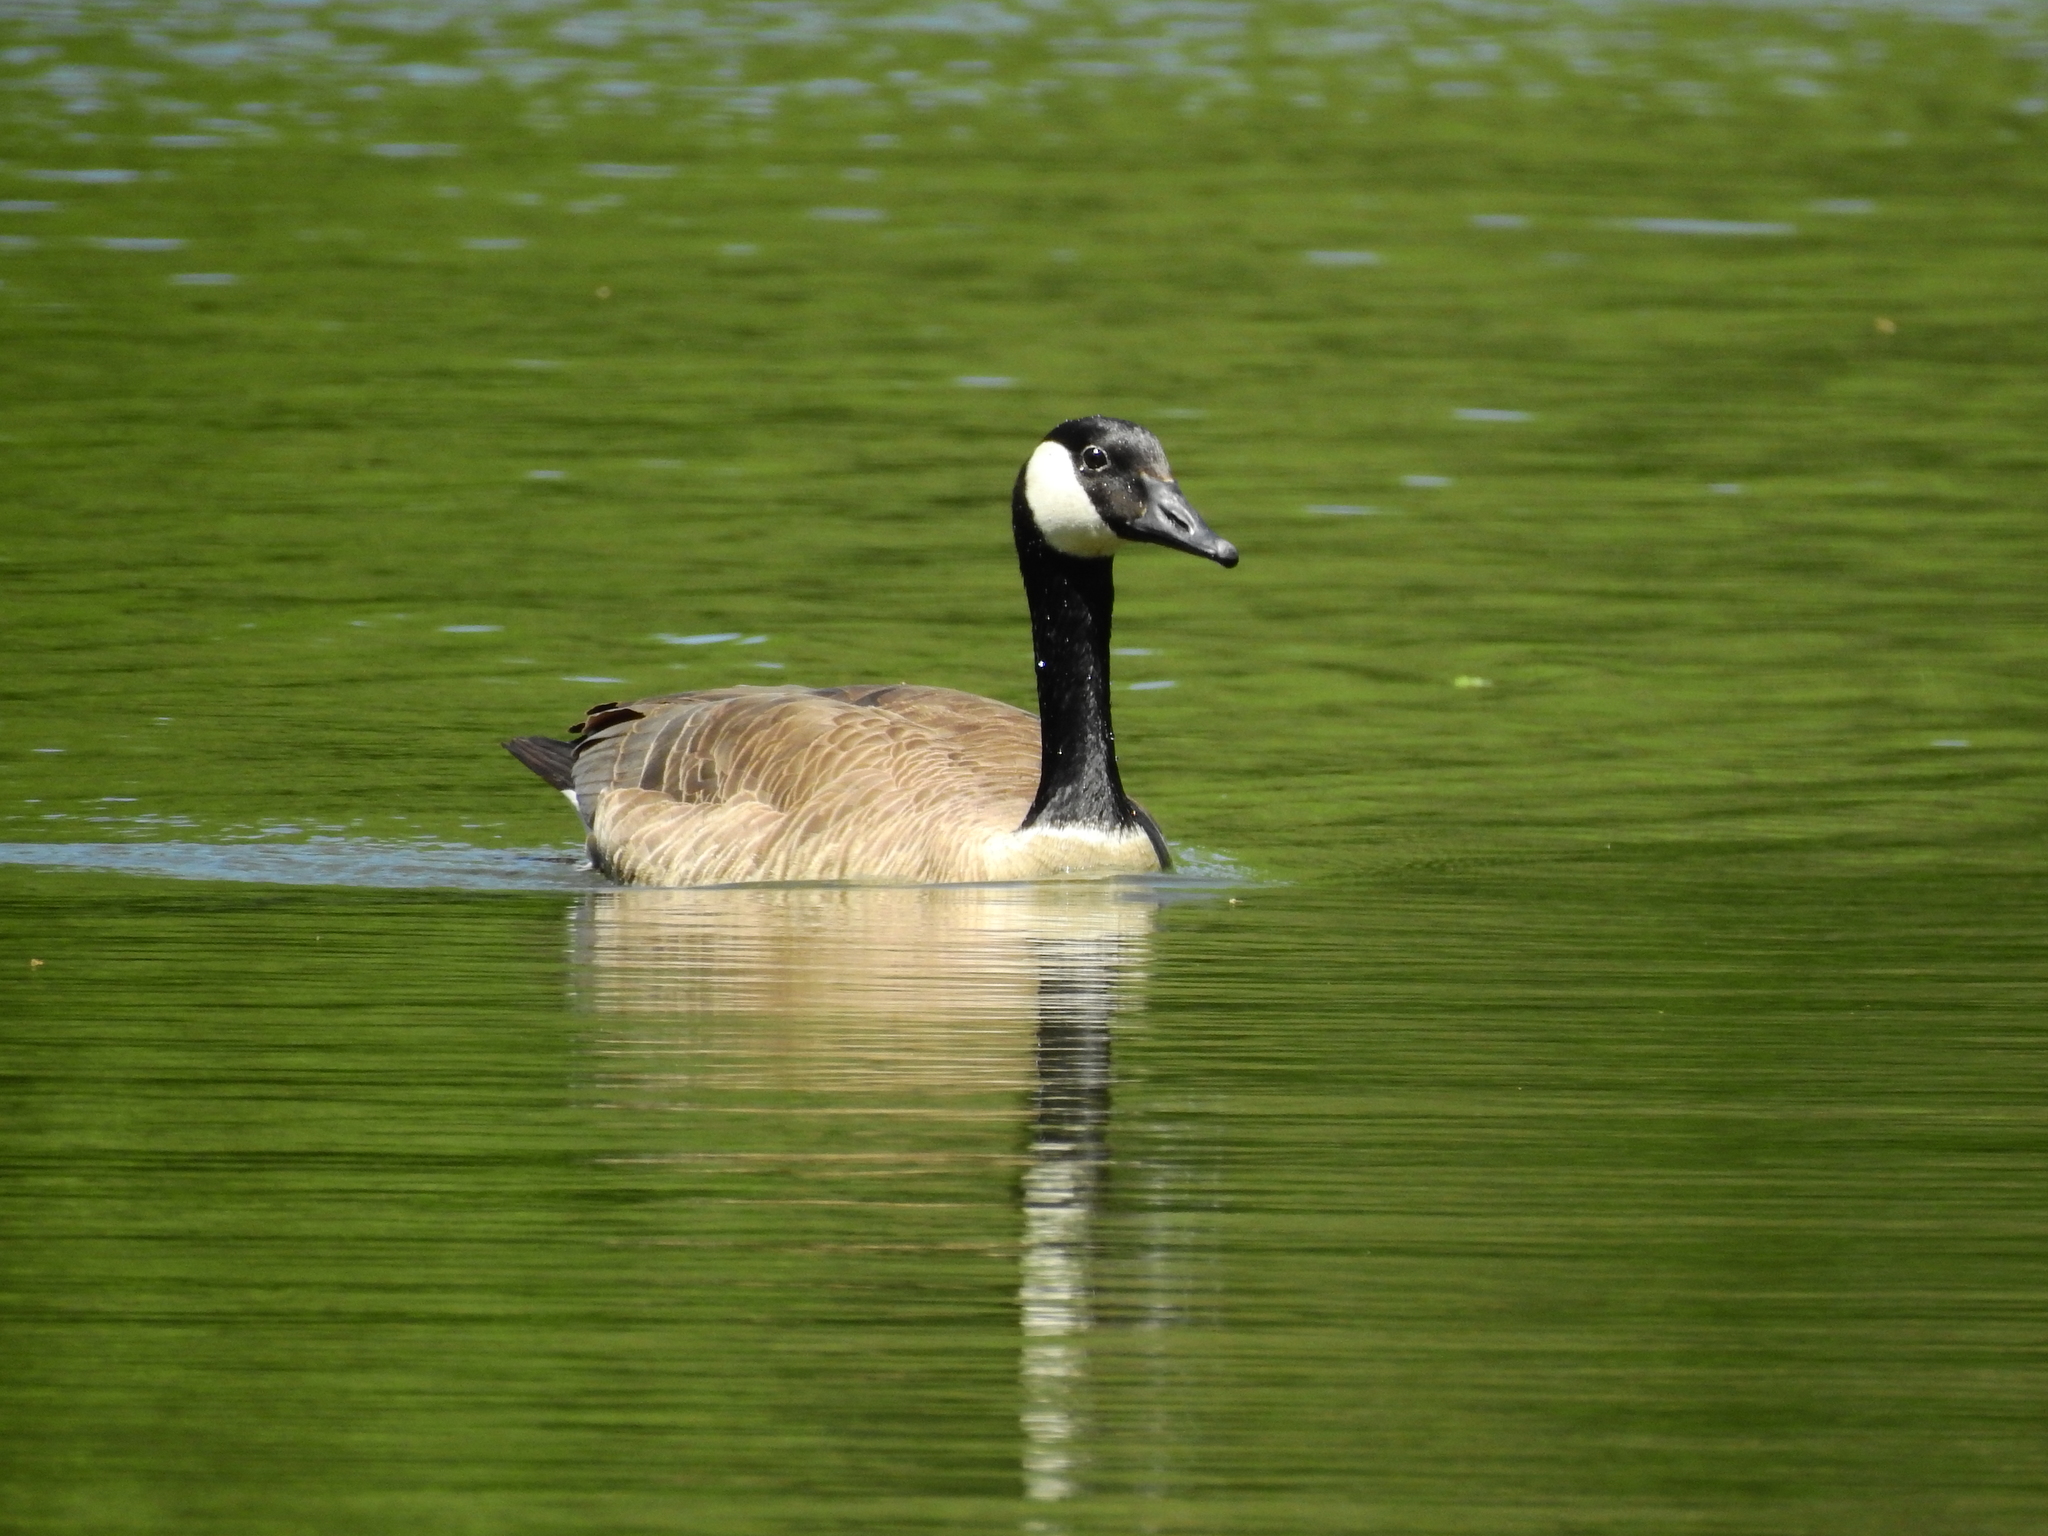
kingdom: Animalia
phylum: Chordata
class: Aves
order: Anseriformes
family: Anatidae
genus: Branta
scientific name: Branta canadensis
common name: Canada goose
